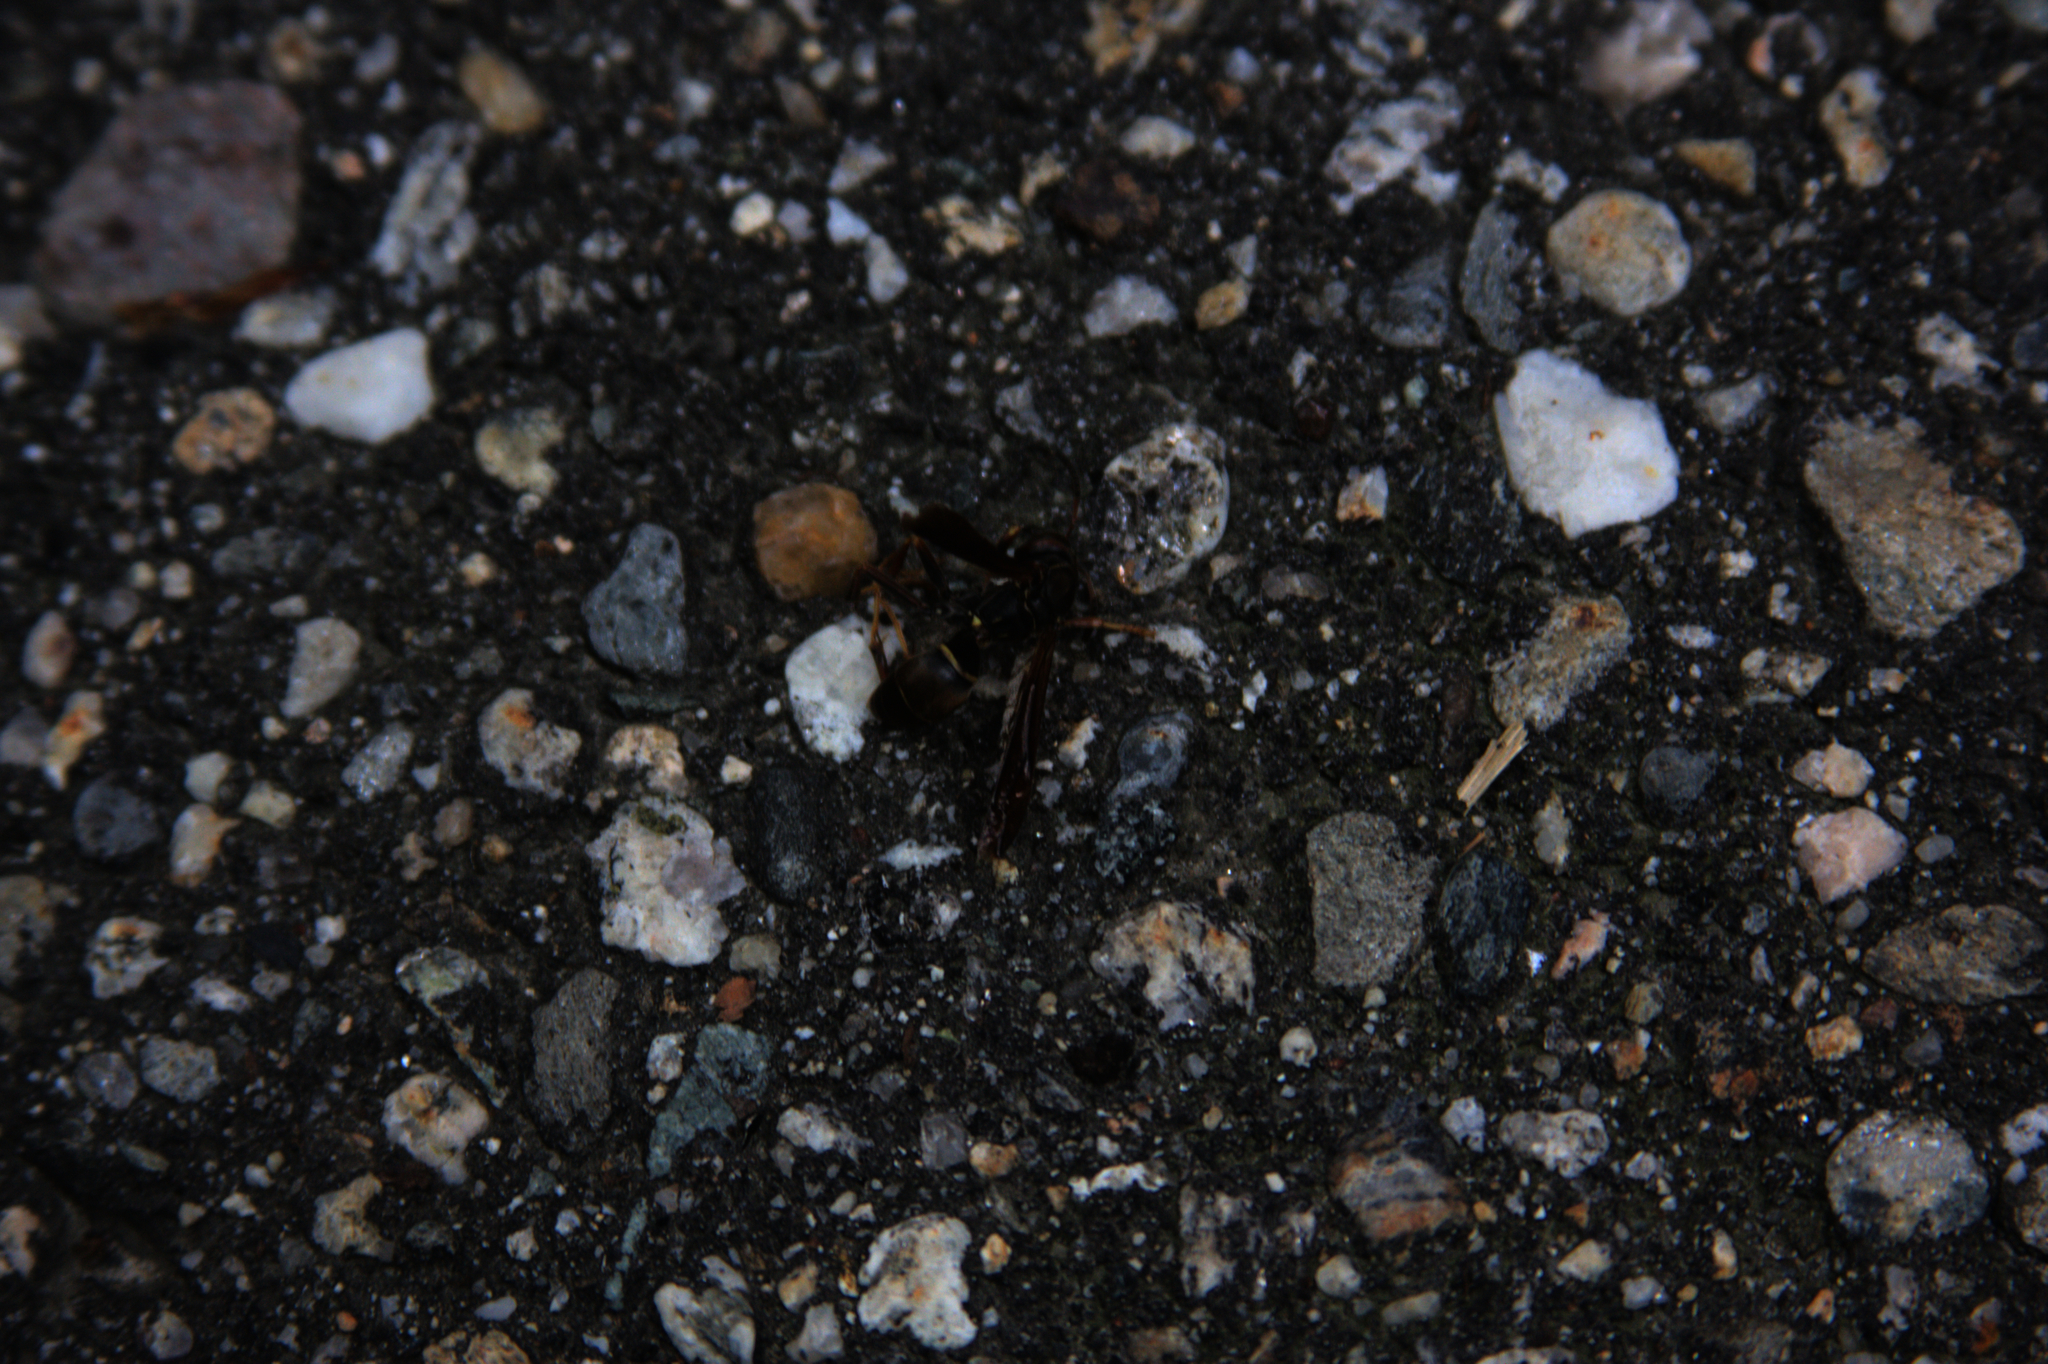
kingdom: Animalia
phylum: Arthropoda
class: Insecta
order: Hymenoptera
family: Eumenidae
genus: Polistes
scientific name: Polistes fuscatus
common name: Dark paper wasp
